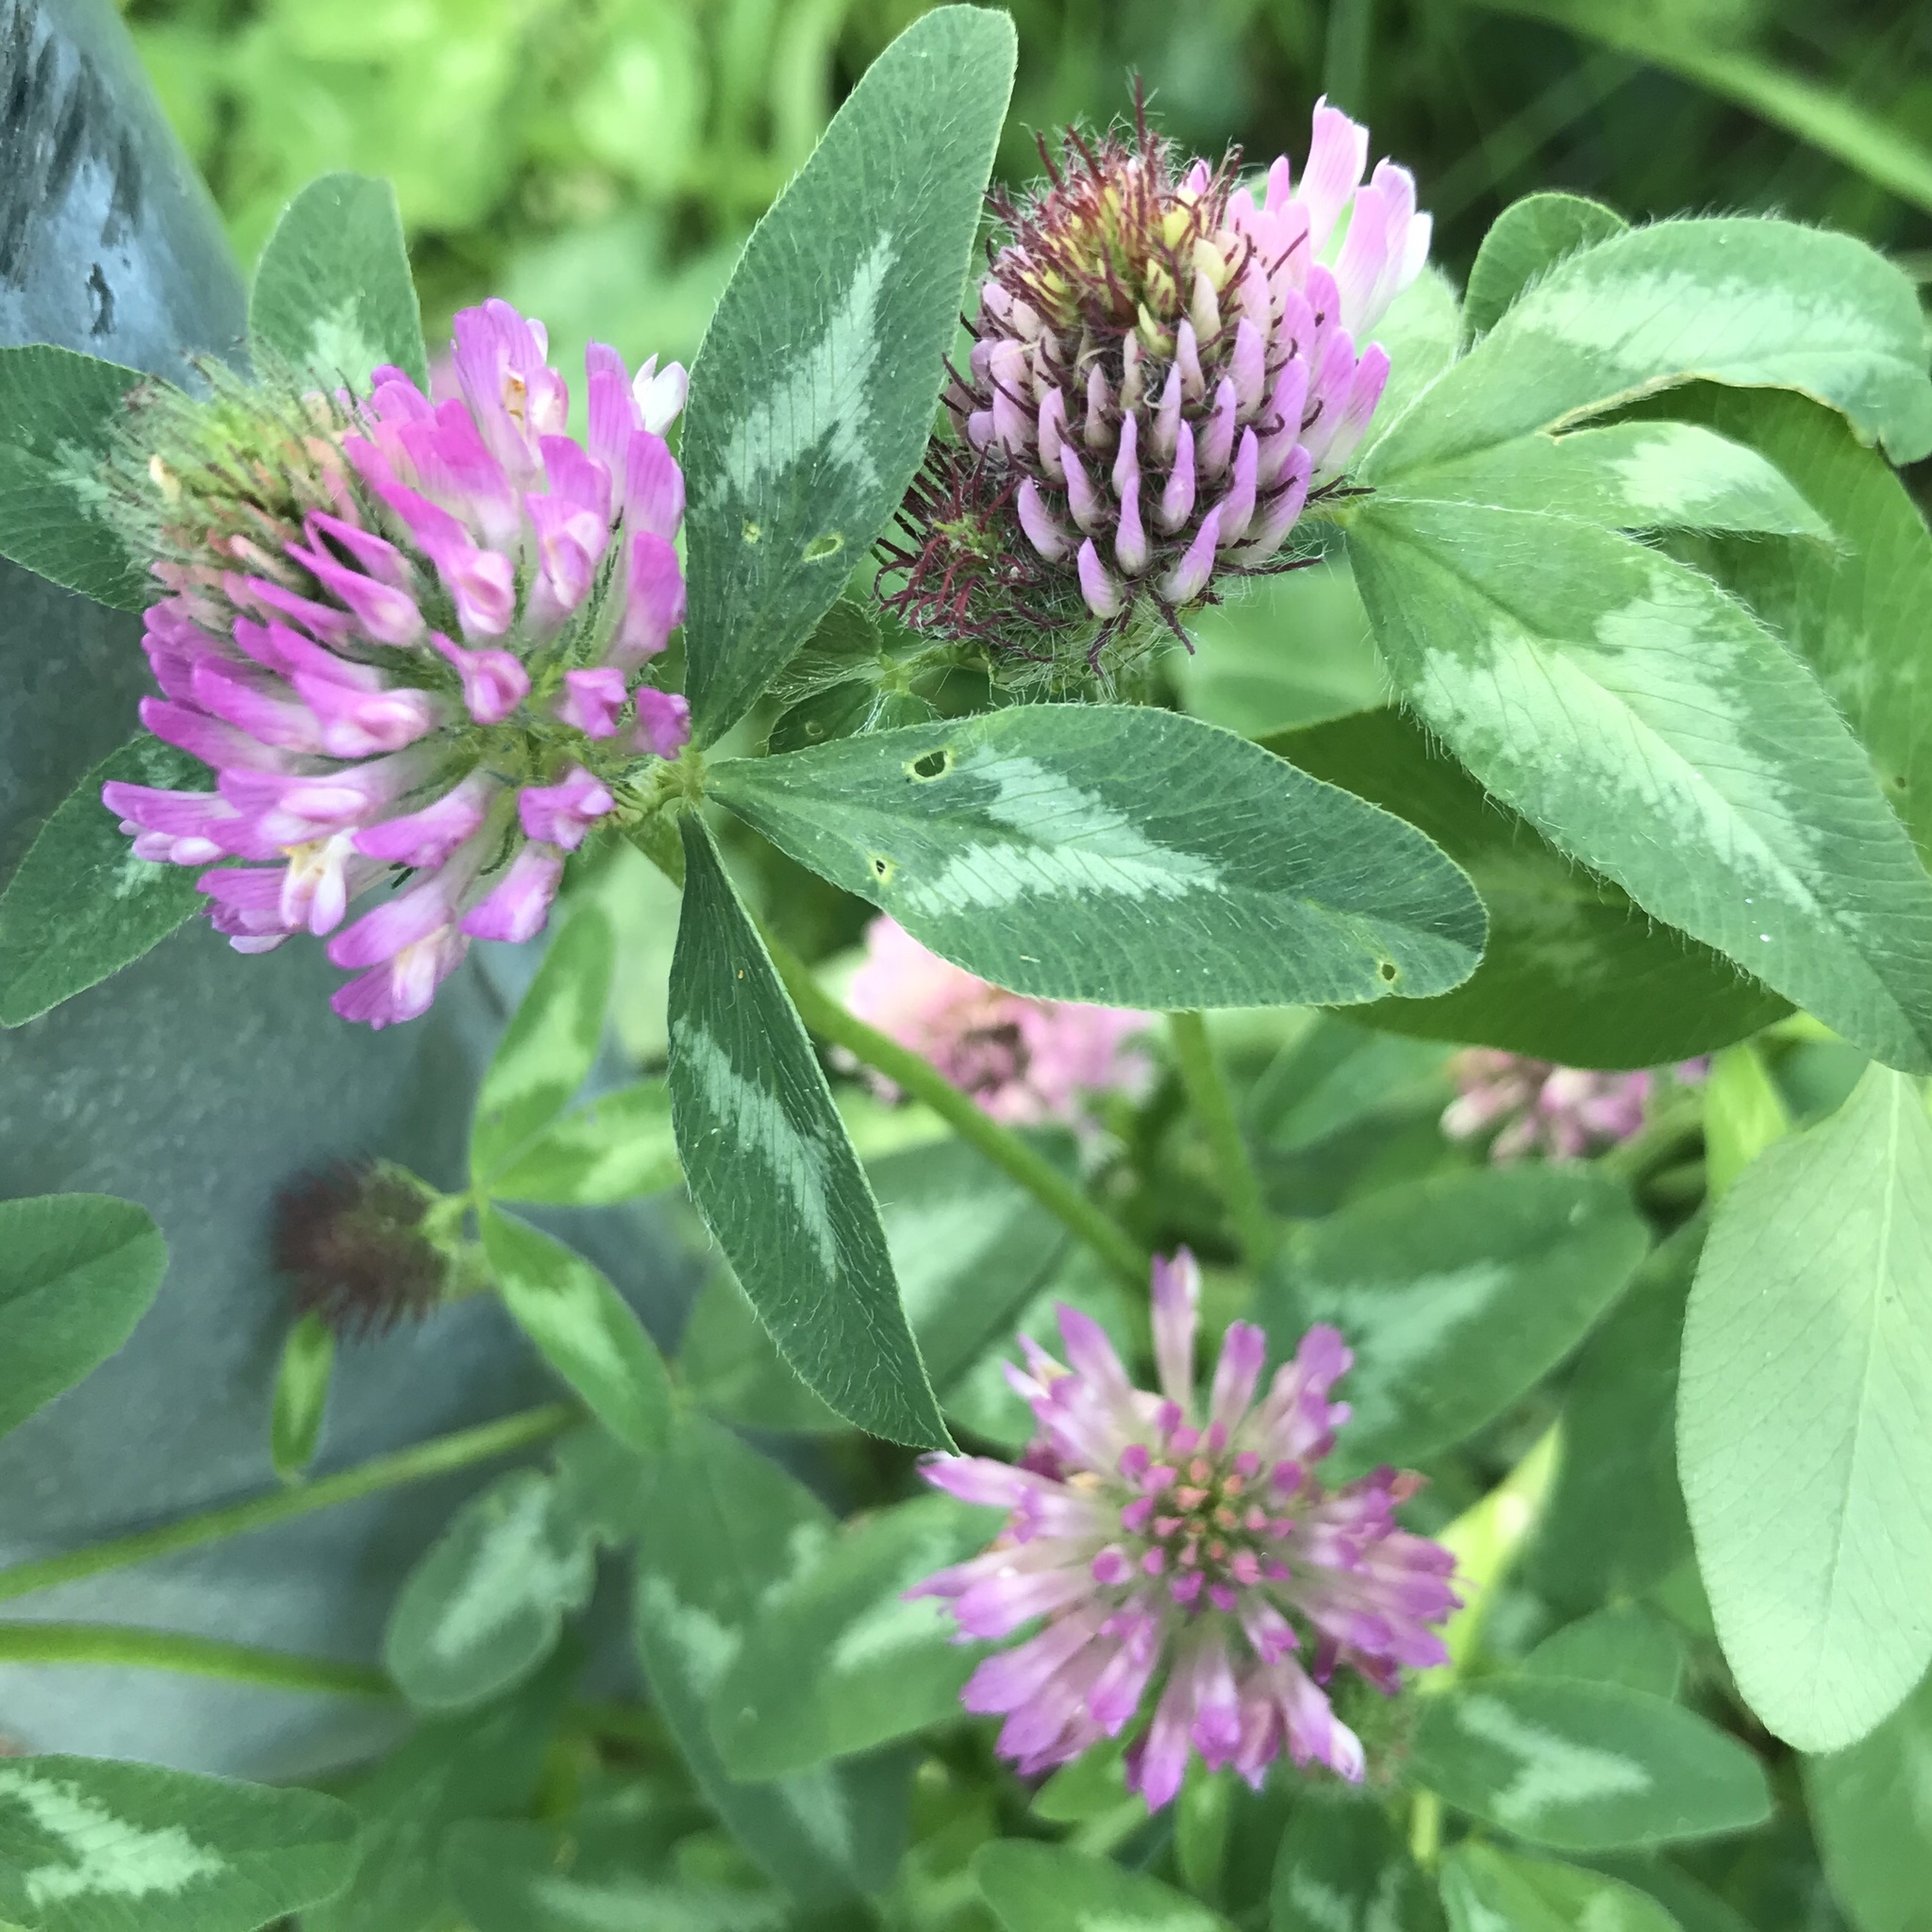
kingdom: Plantae
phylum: Tracheophyta
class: Magnoliopsida
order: Fabales
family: Fabaceae
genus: Trifolium
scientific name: Trifolium pratense
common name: Red clover
